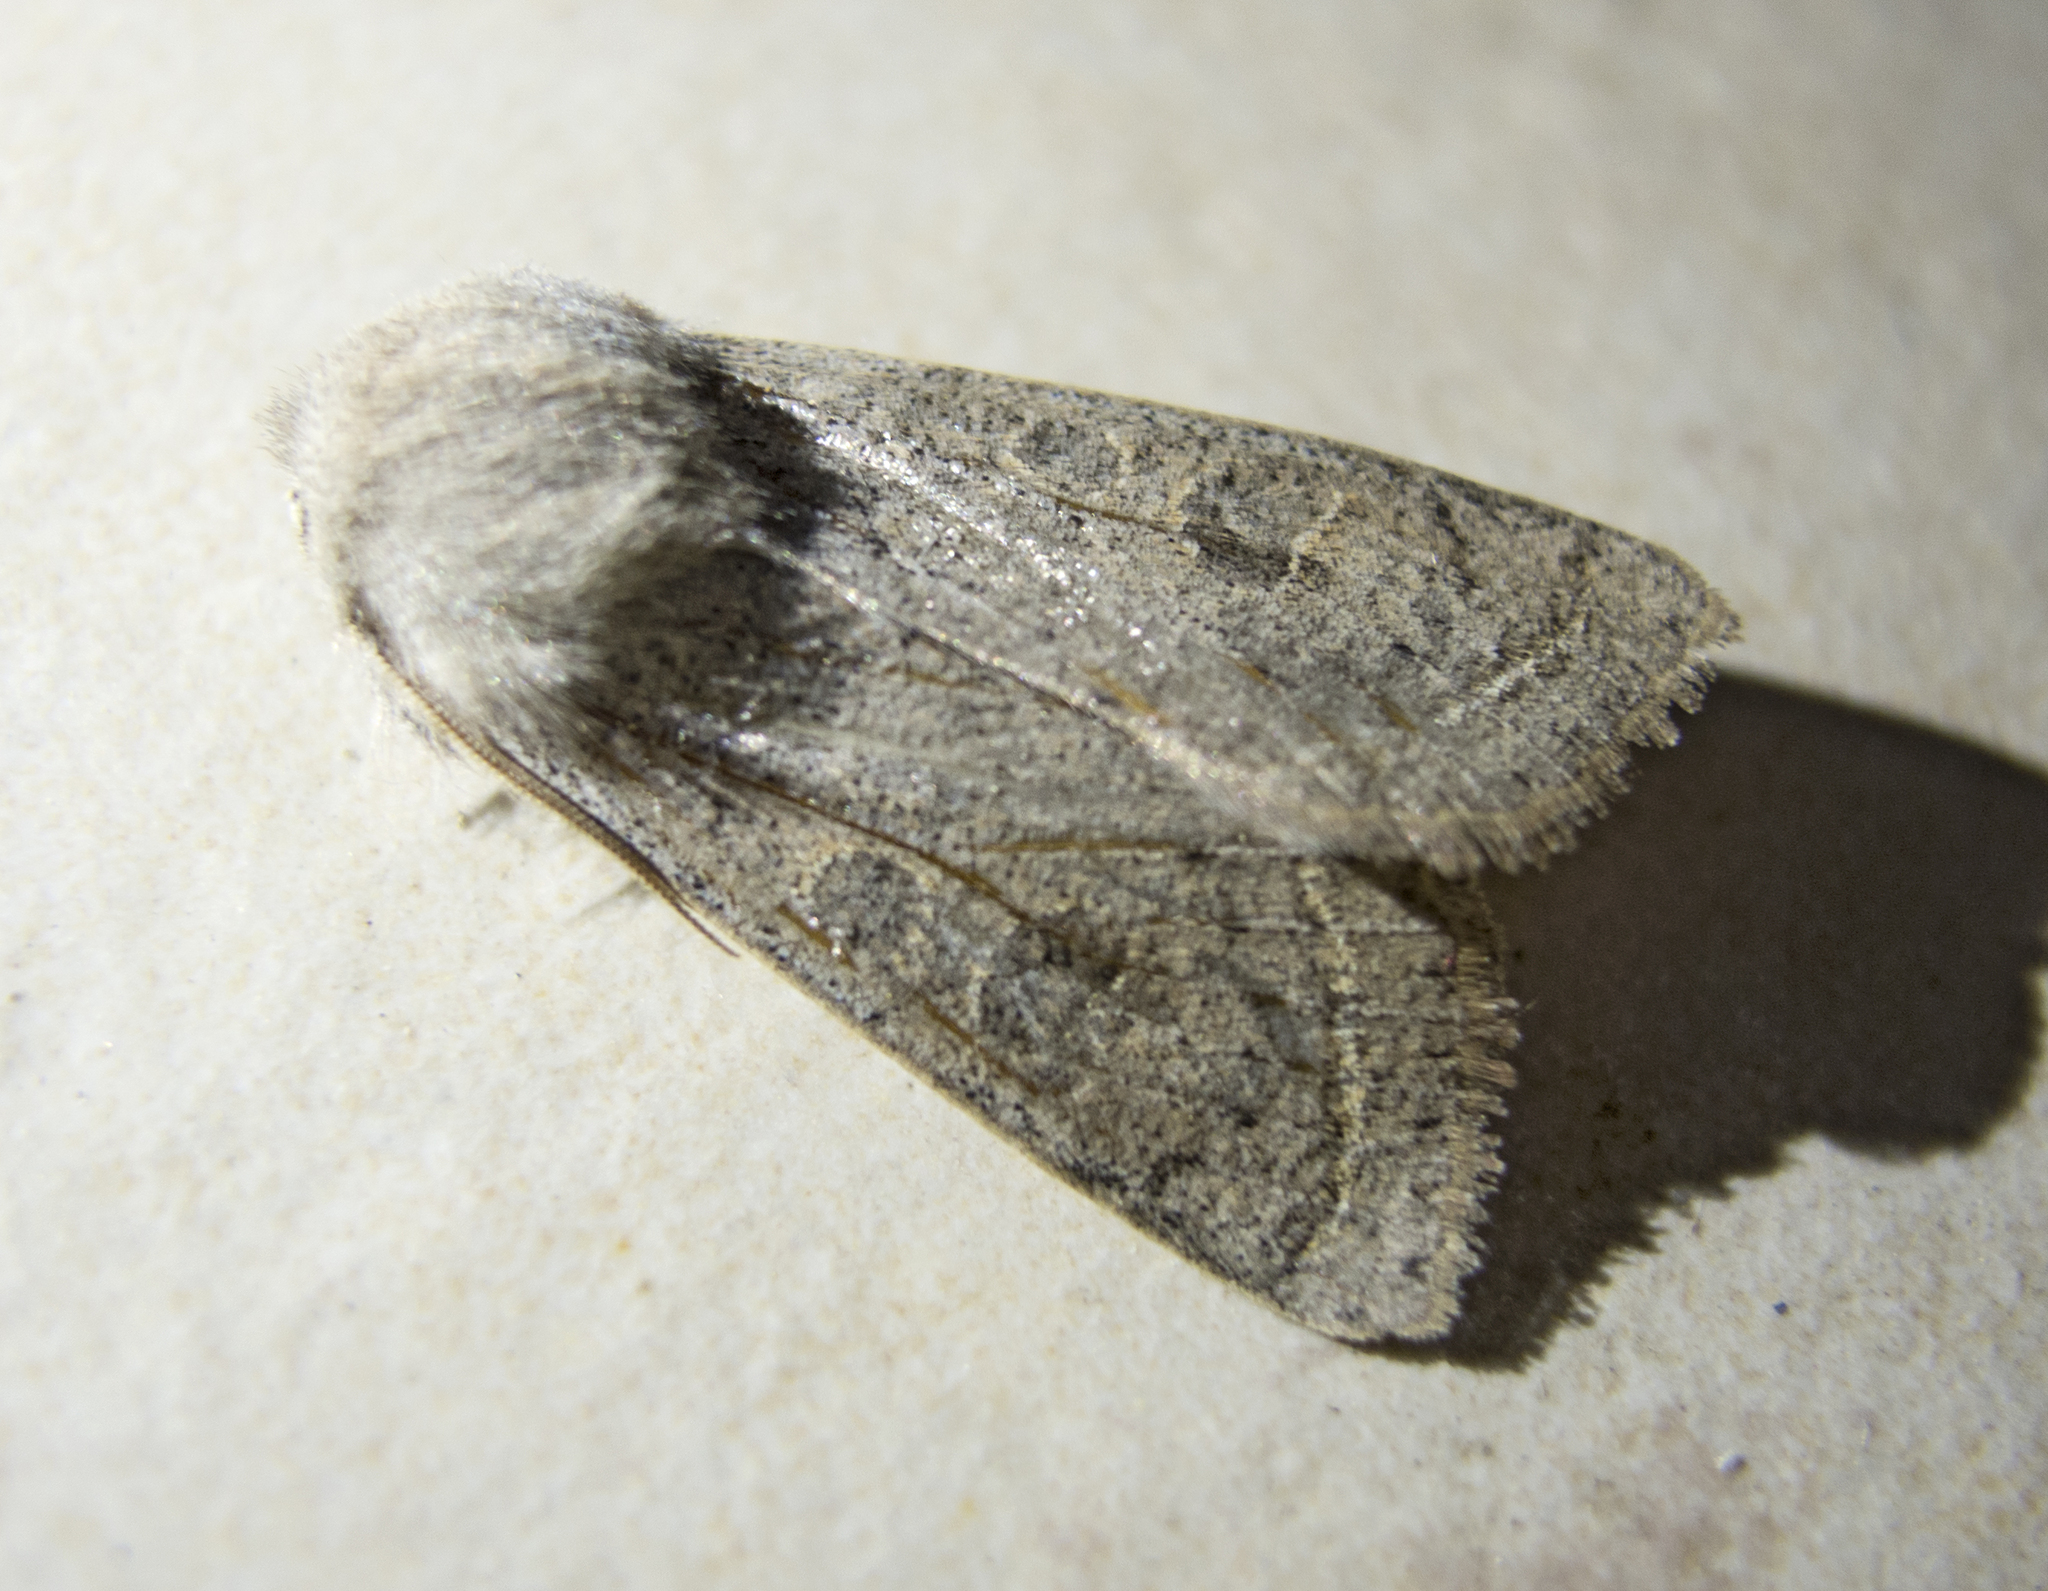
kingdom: Animalia
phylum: Arthropoda
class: Insecta
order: Lepidoptera
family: Noctuidae
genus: Orthosia
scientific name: Orthosia gracilis
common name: Powdered quaker
